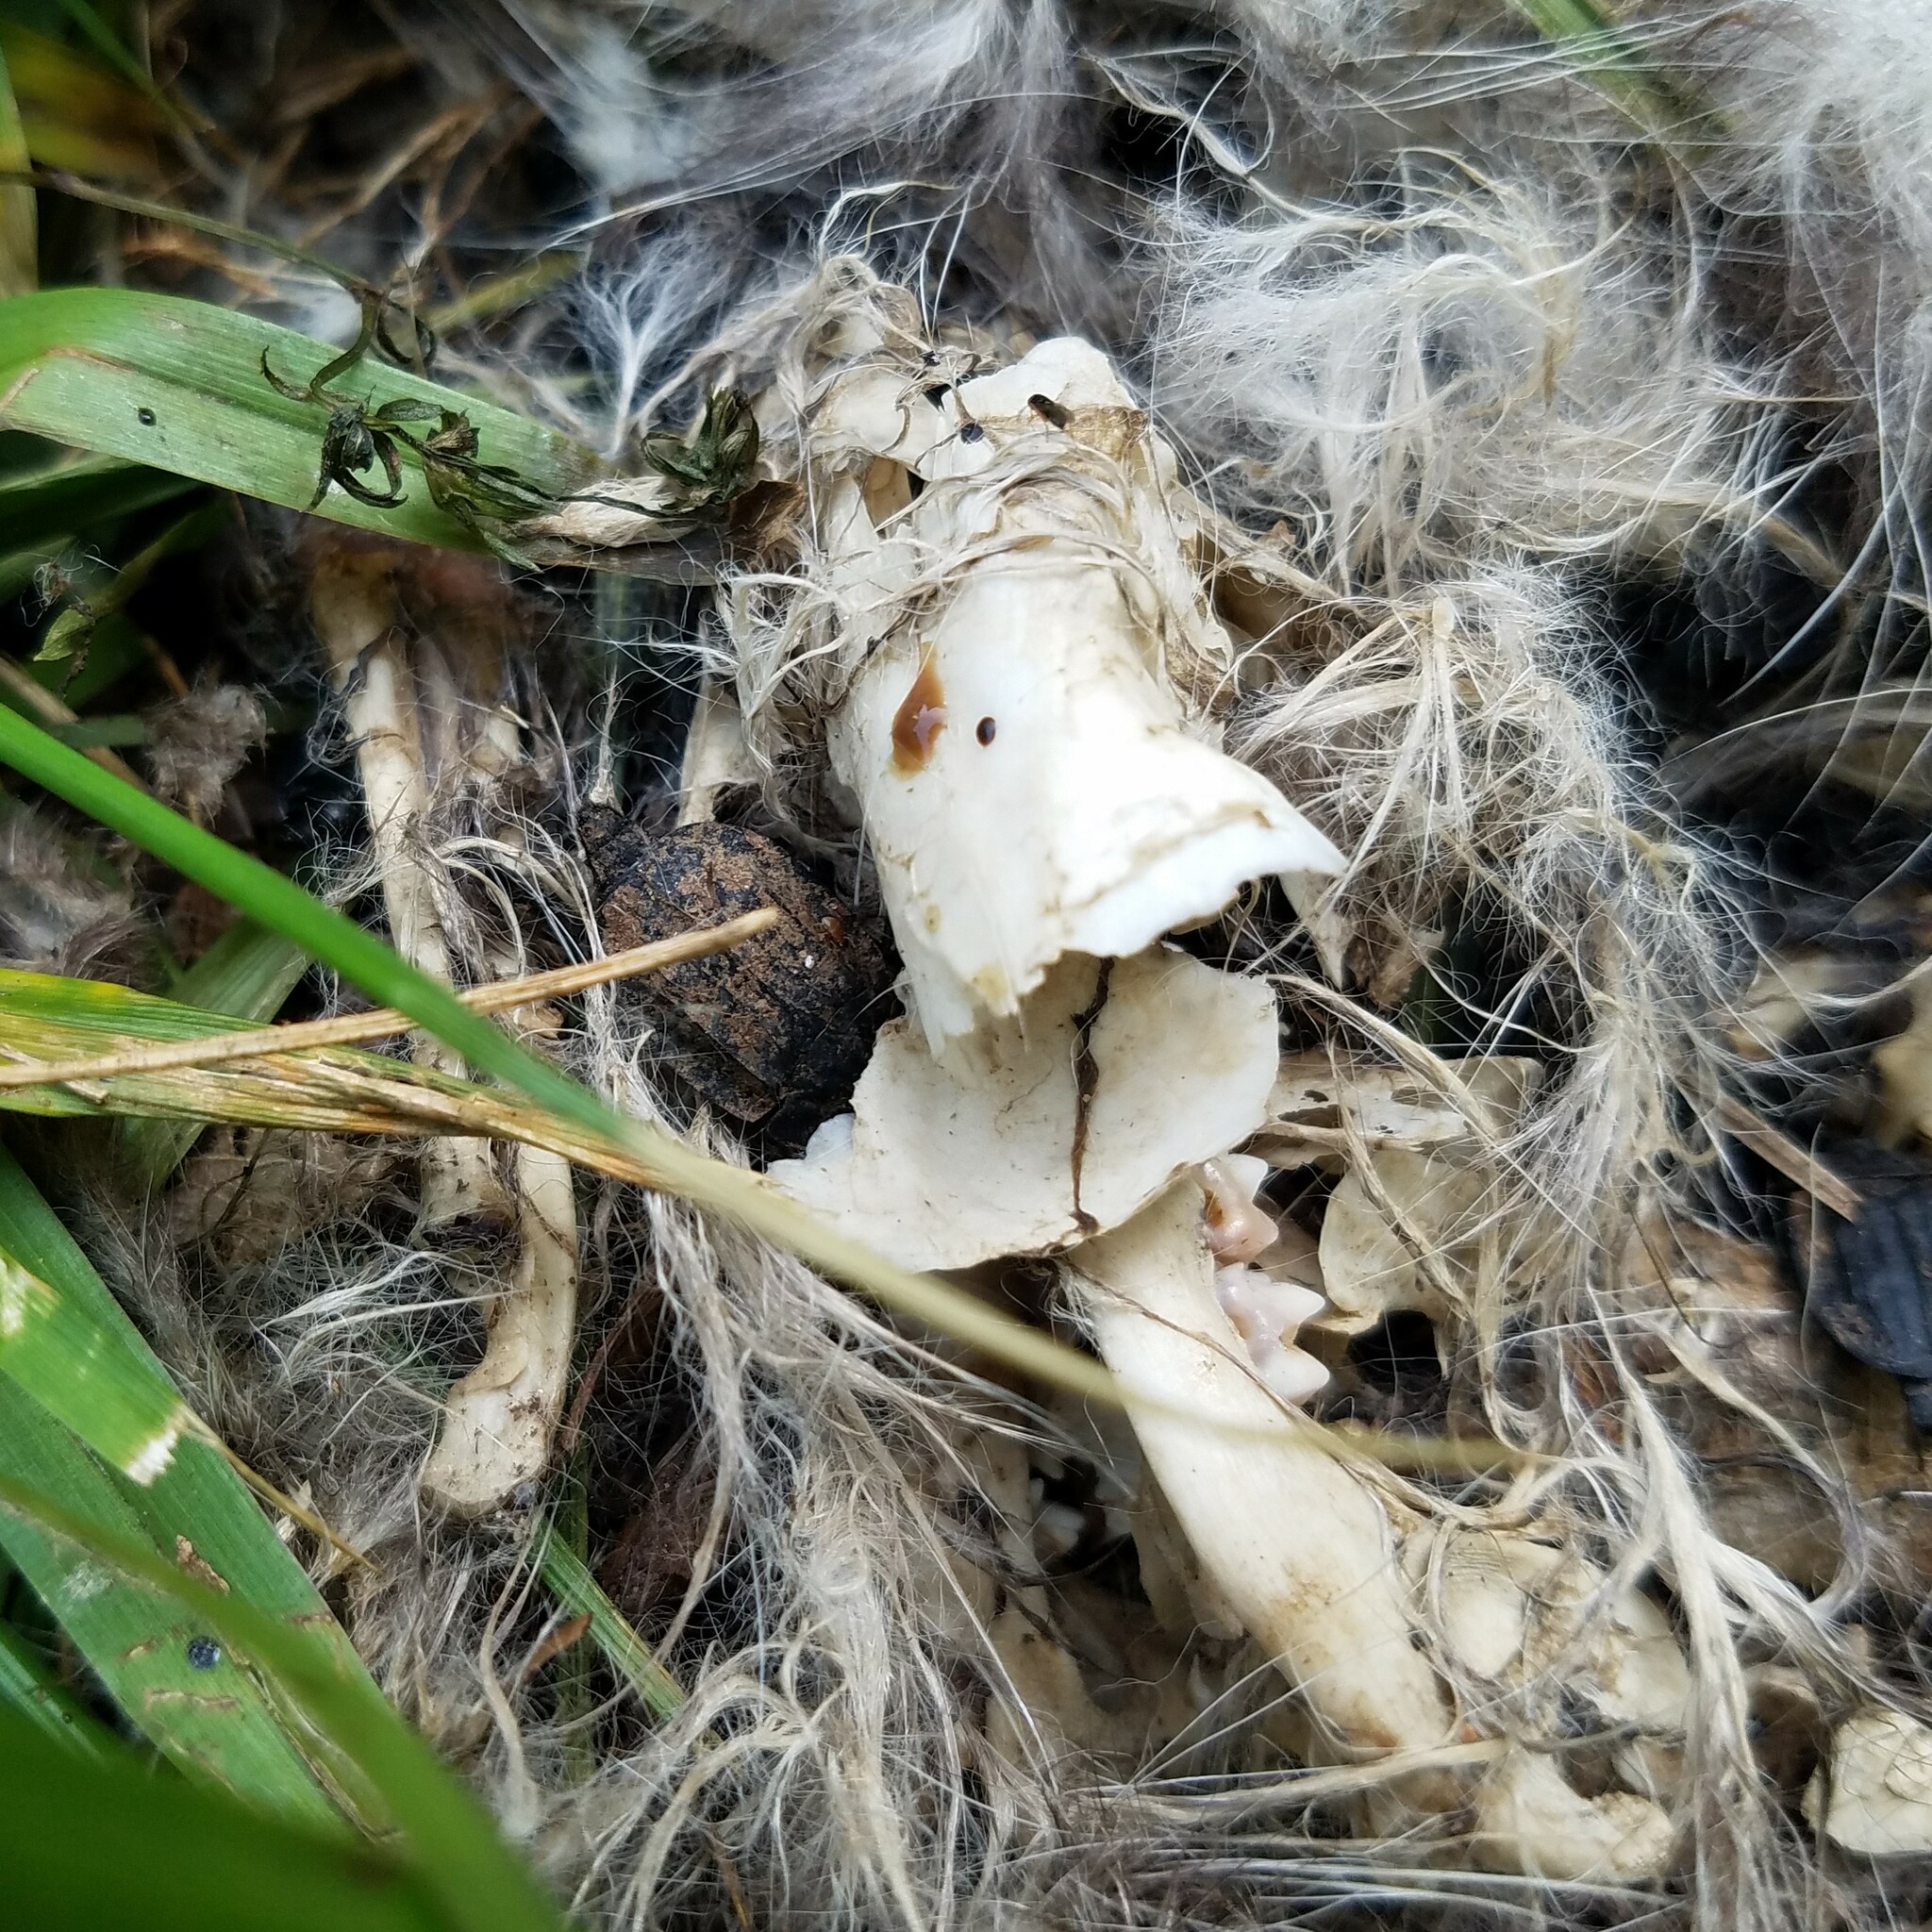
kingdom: Animalia
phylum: Arthropoda
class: Insecta
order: Coleoptera
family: Staphylinidae
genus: Oiceoptoma
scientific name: Oiceoptoma inaequale
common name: Ridged carrion beetle
